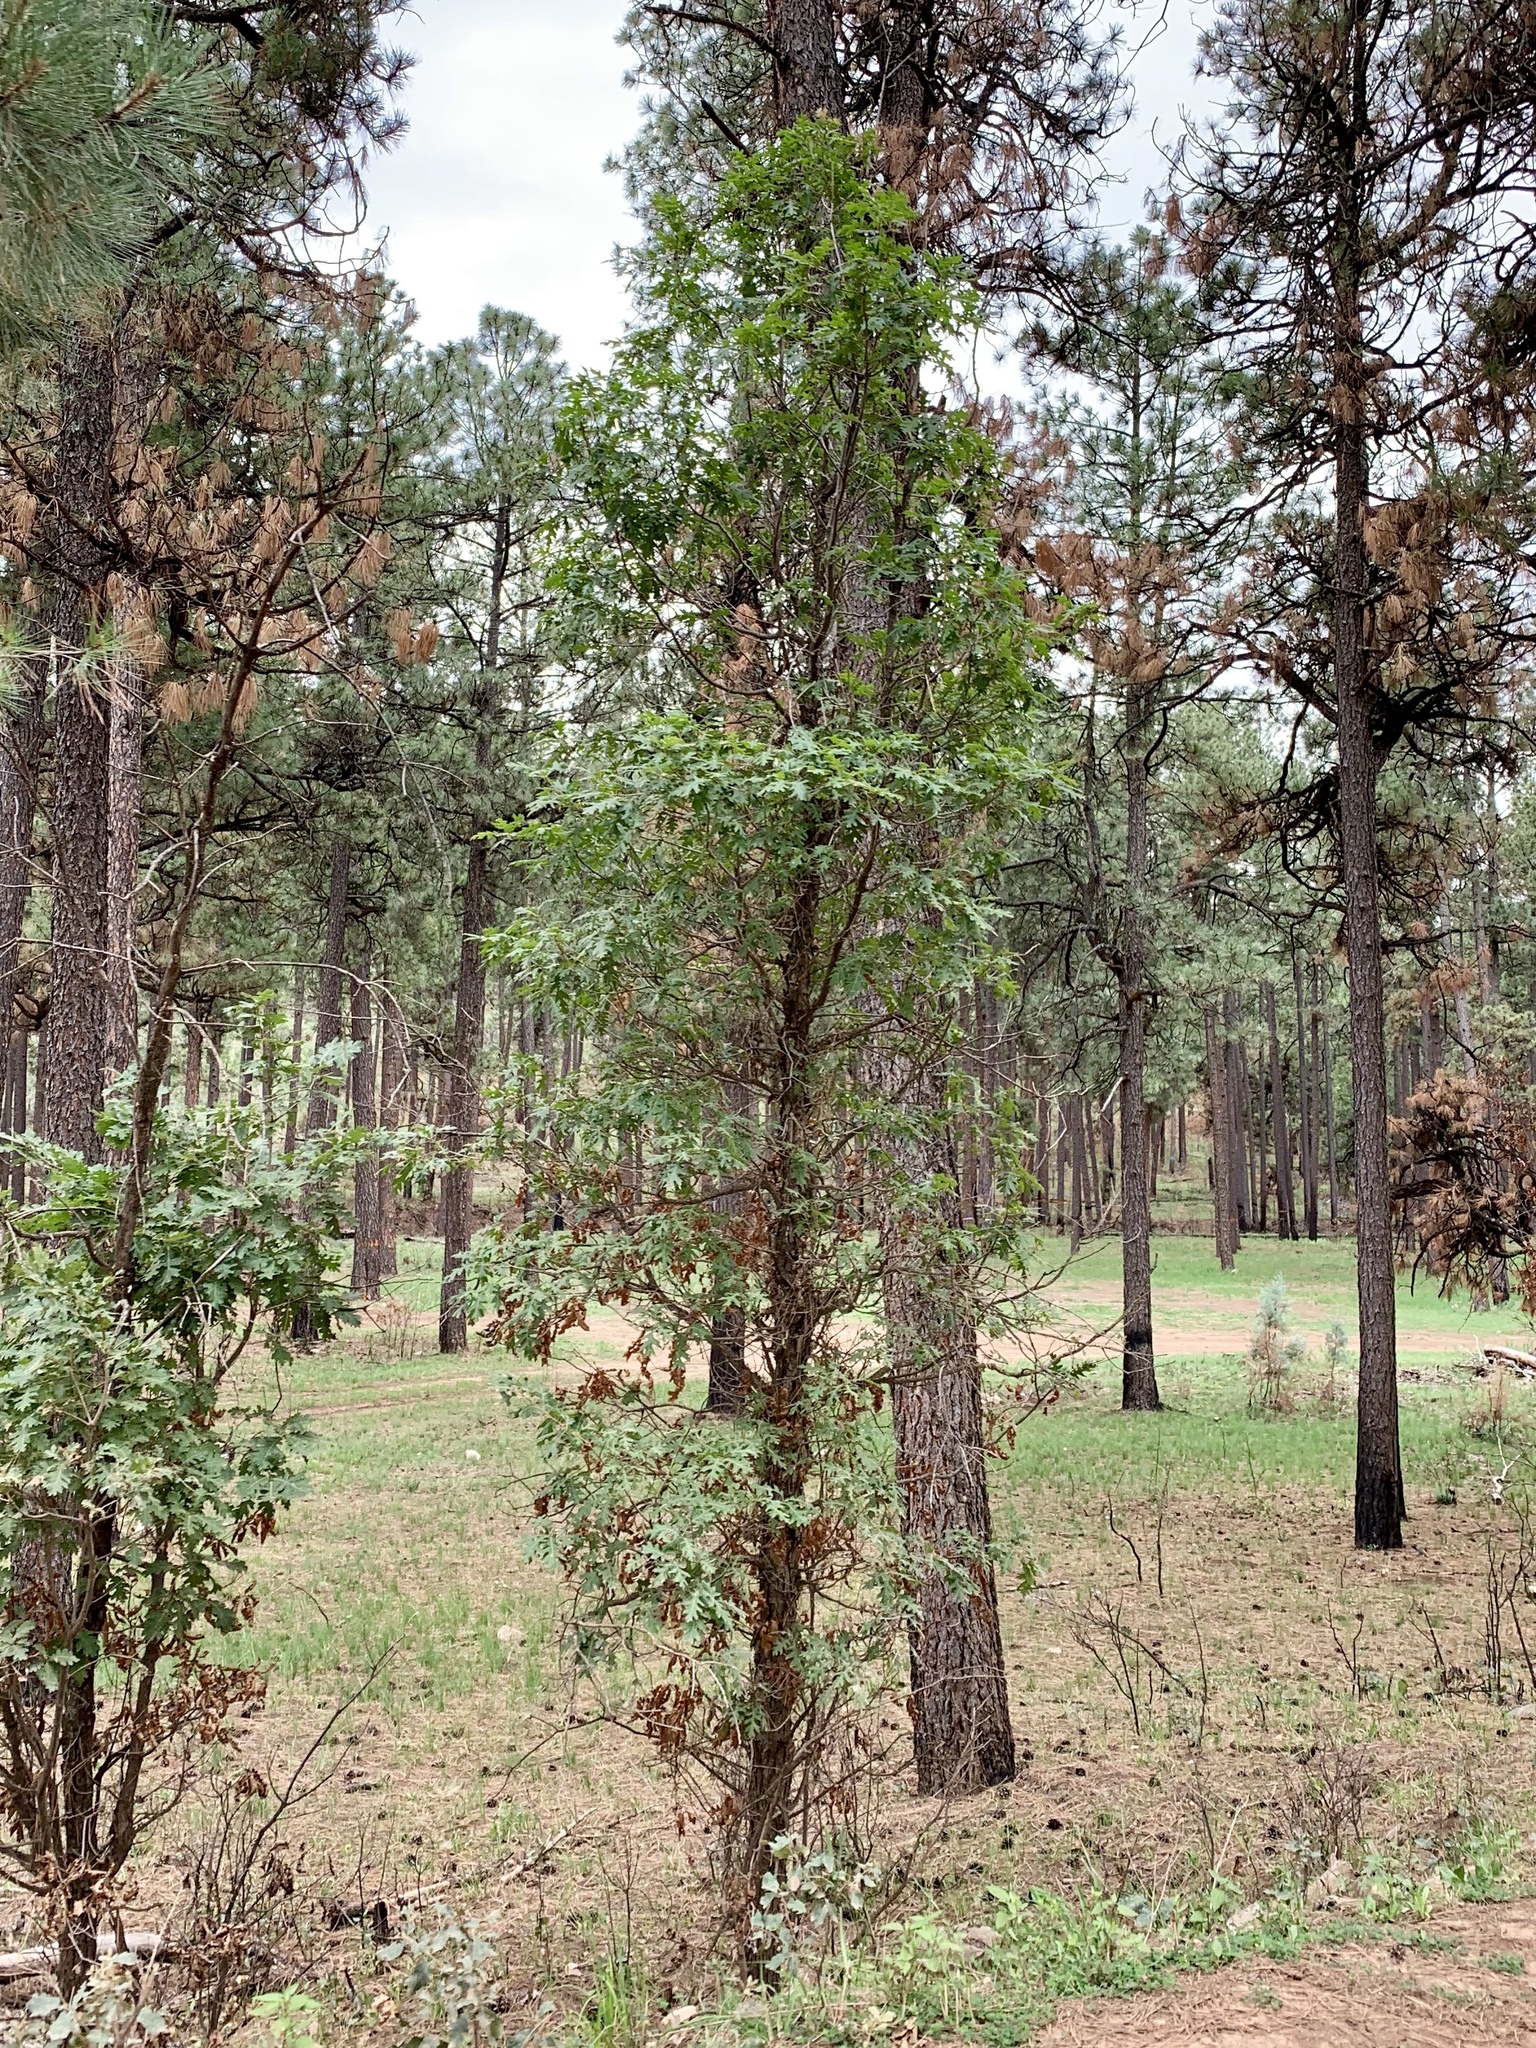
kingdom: Plantae
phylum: Tracheophyta
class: Magnoliopsida
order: Fagales
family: Fagaceae
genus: Quercus
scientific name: Quercus gambelii
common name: Gambel oak
